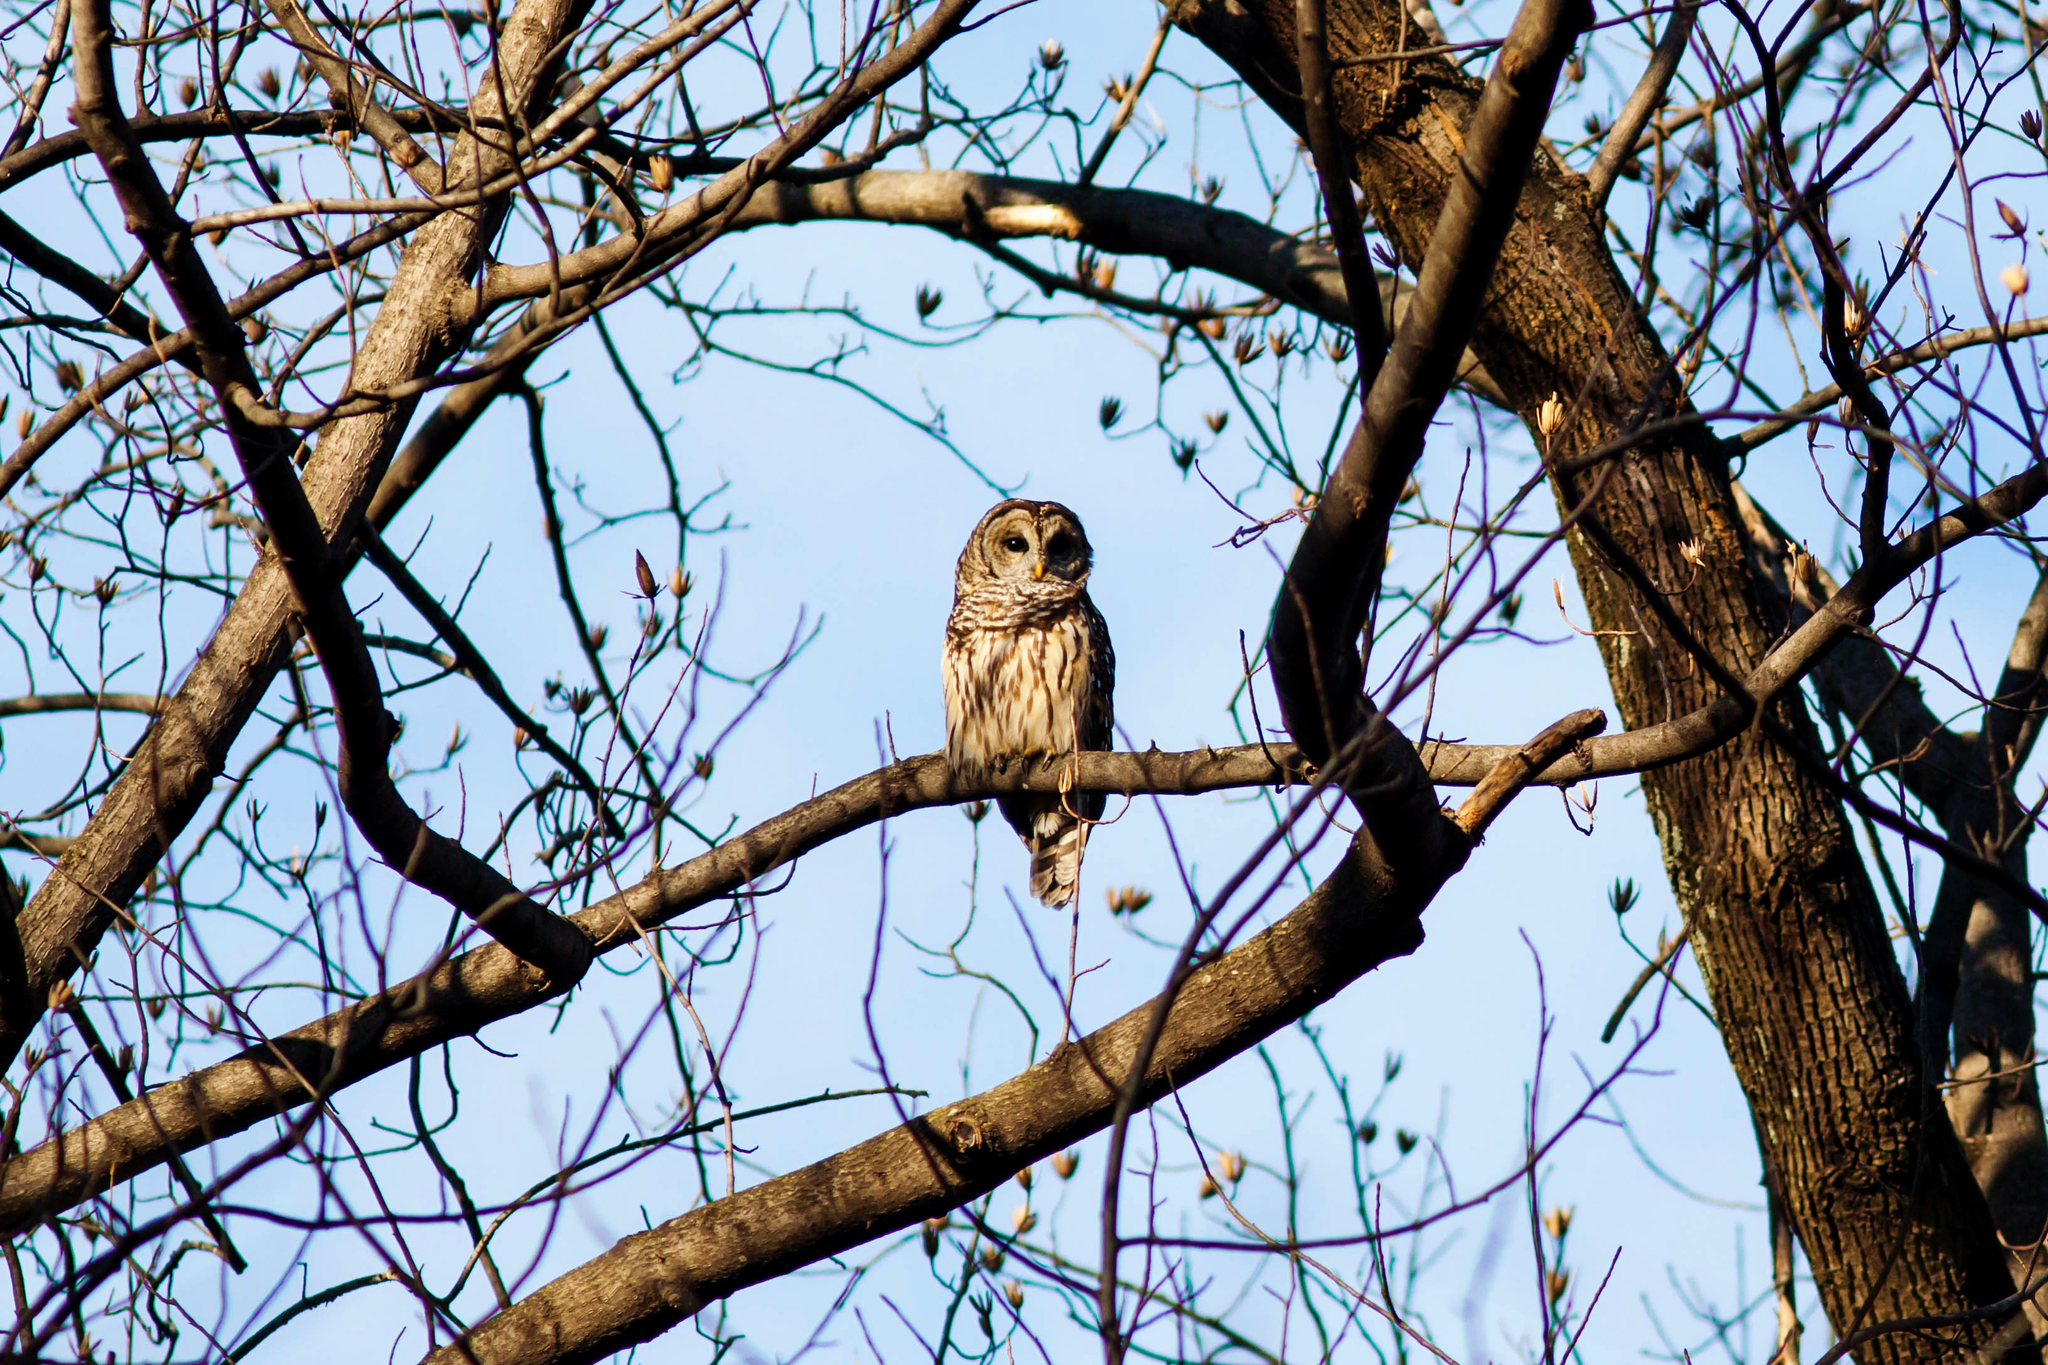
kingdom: Animalia
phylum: Chordata
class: Aves
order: Strigiformes
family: Strigidae
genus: Strix
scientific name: Strix varia
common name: Barred owl
